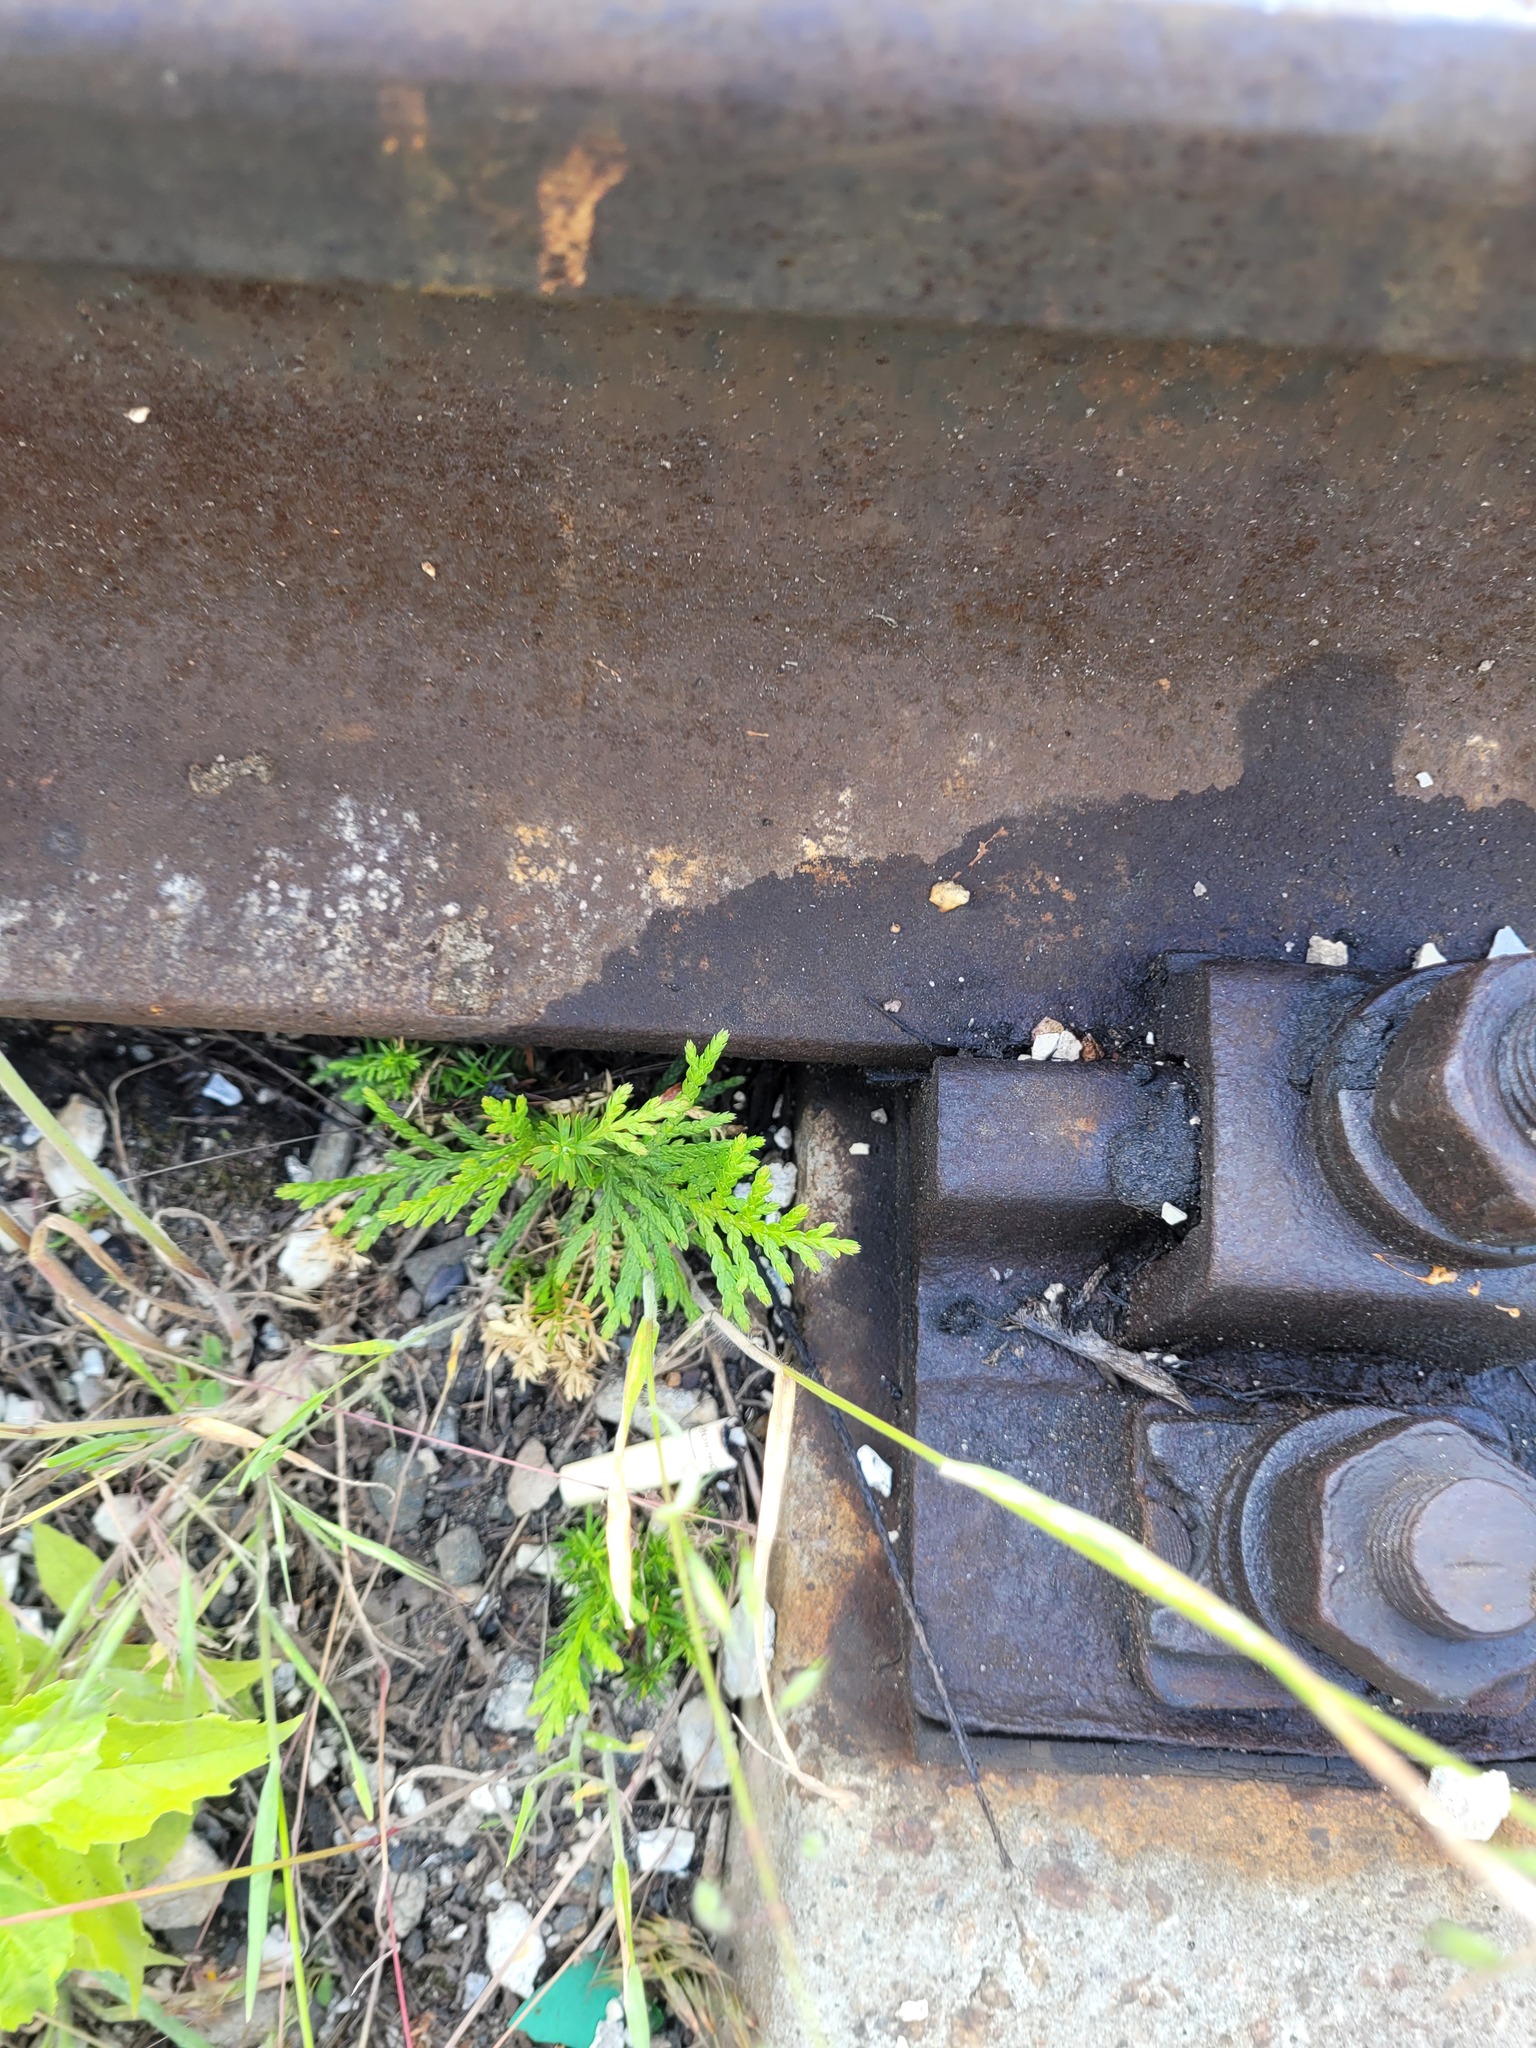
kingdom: Plantae
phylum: Tracheophyta
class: Pinopsida
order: Pinales
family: Cupressaceae
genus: Thuja
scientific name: Thuja occidentalis
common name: Northern white-cedar
